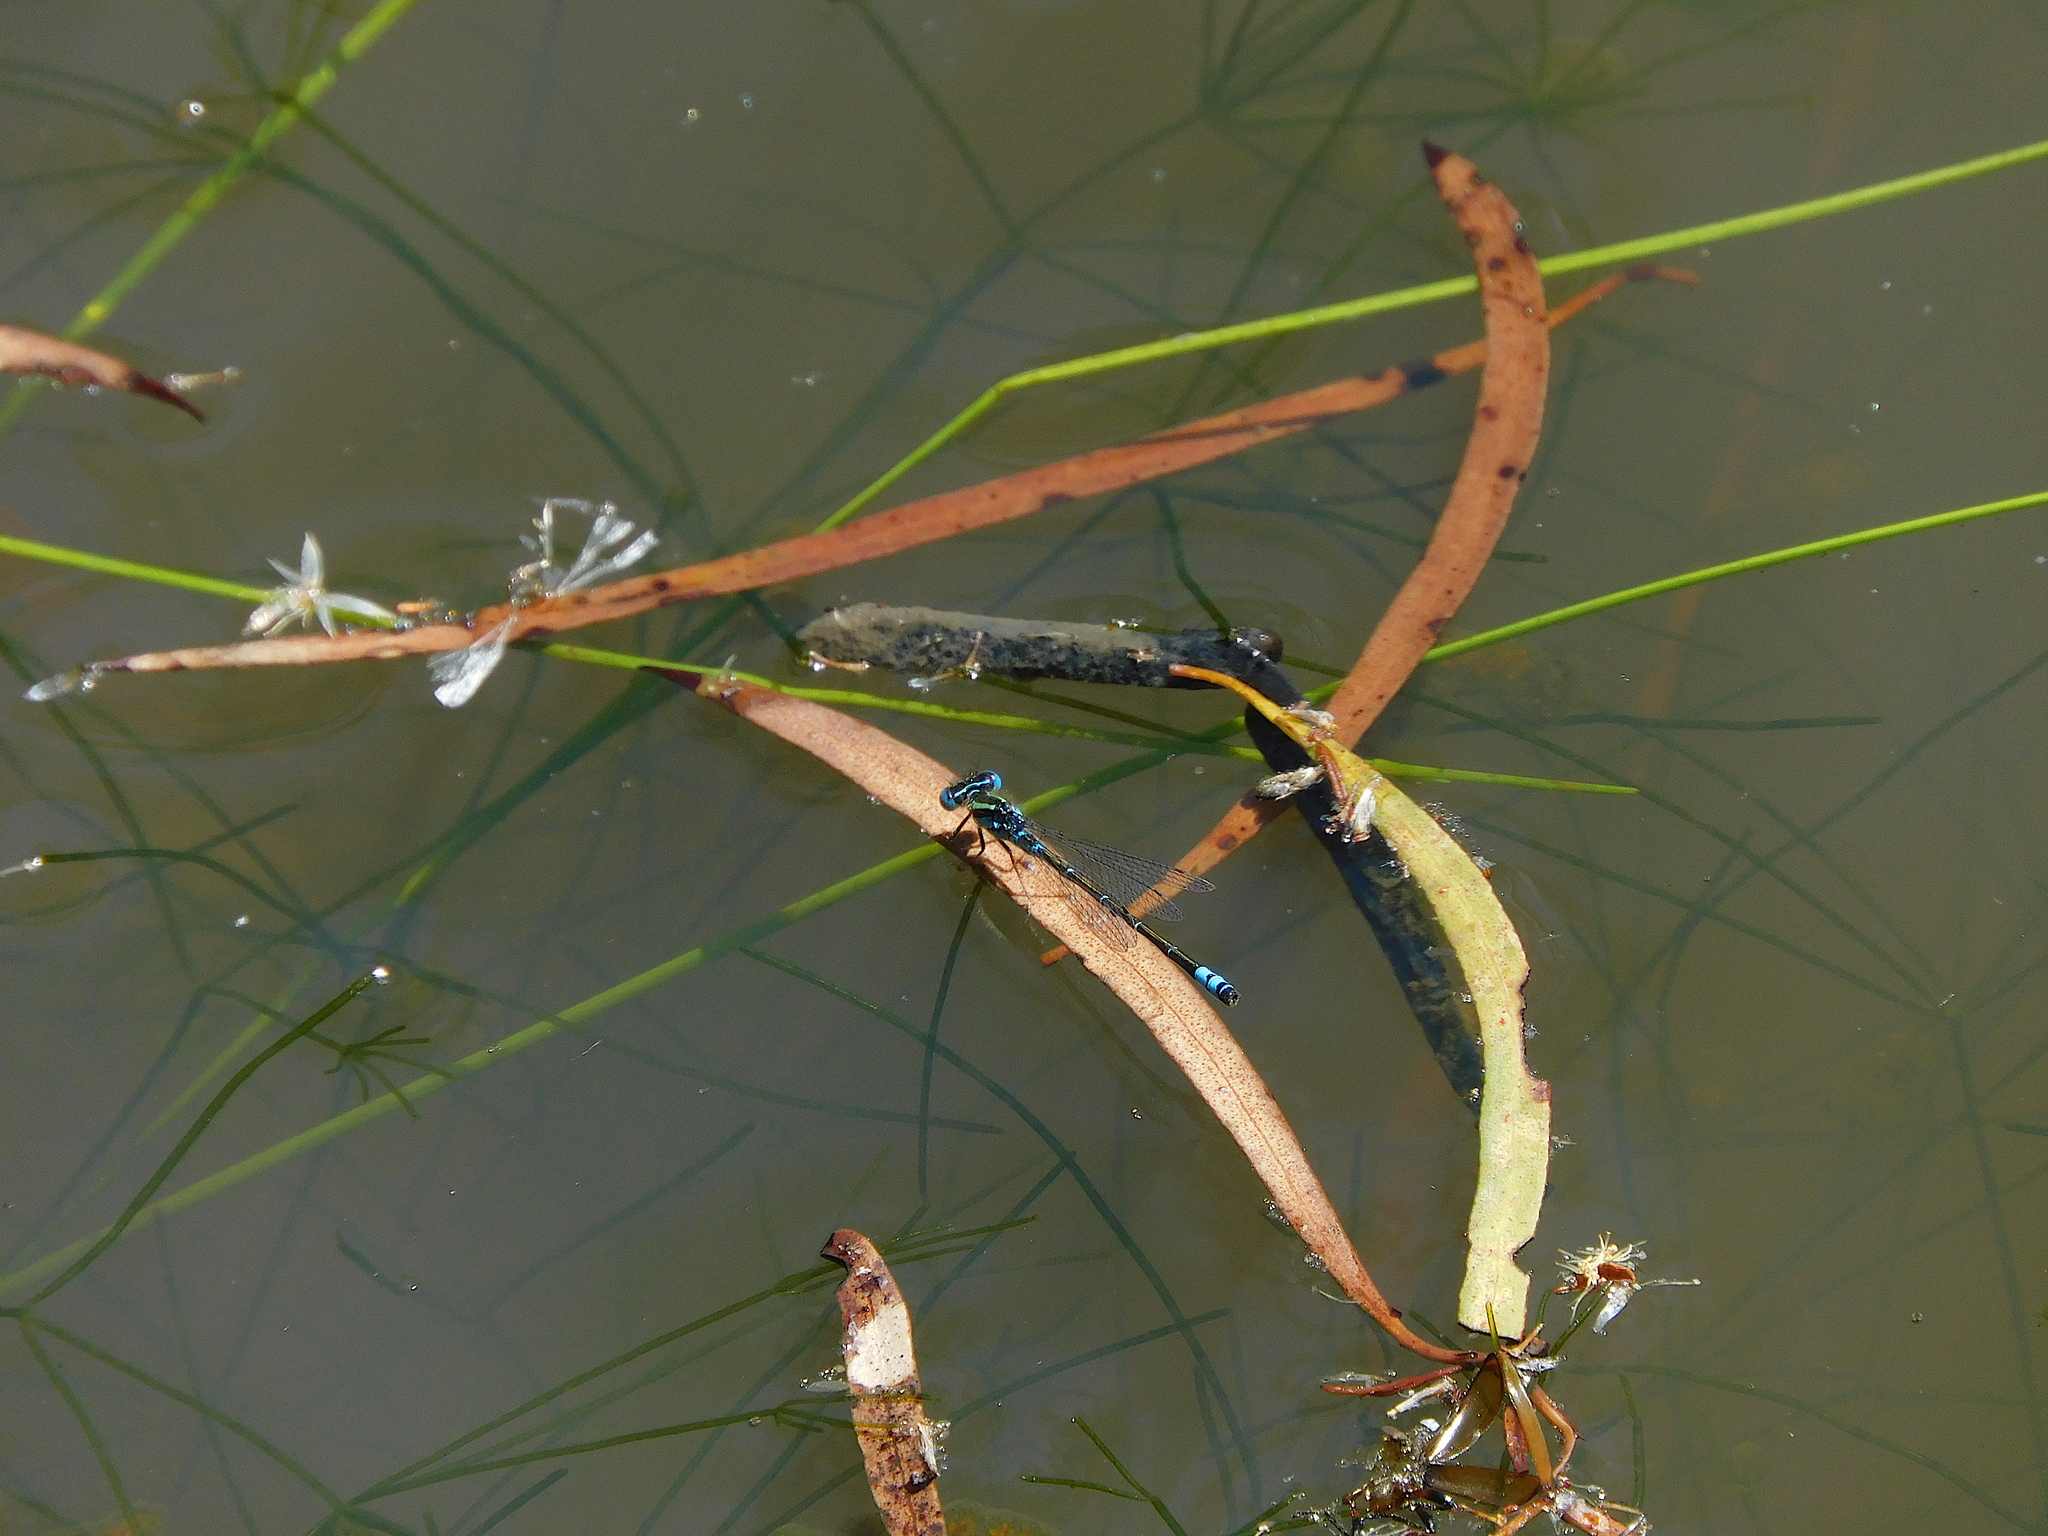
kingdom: Animalia
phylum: Arthropoda
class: Insecta
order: Odonata
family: Coenagrionidae
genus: Austroagrion
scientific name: Austroagrion watsoni
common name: Eastern billabongfly
